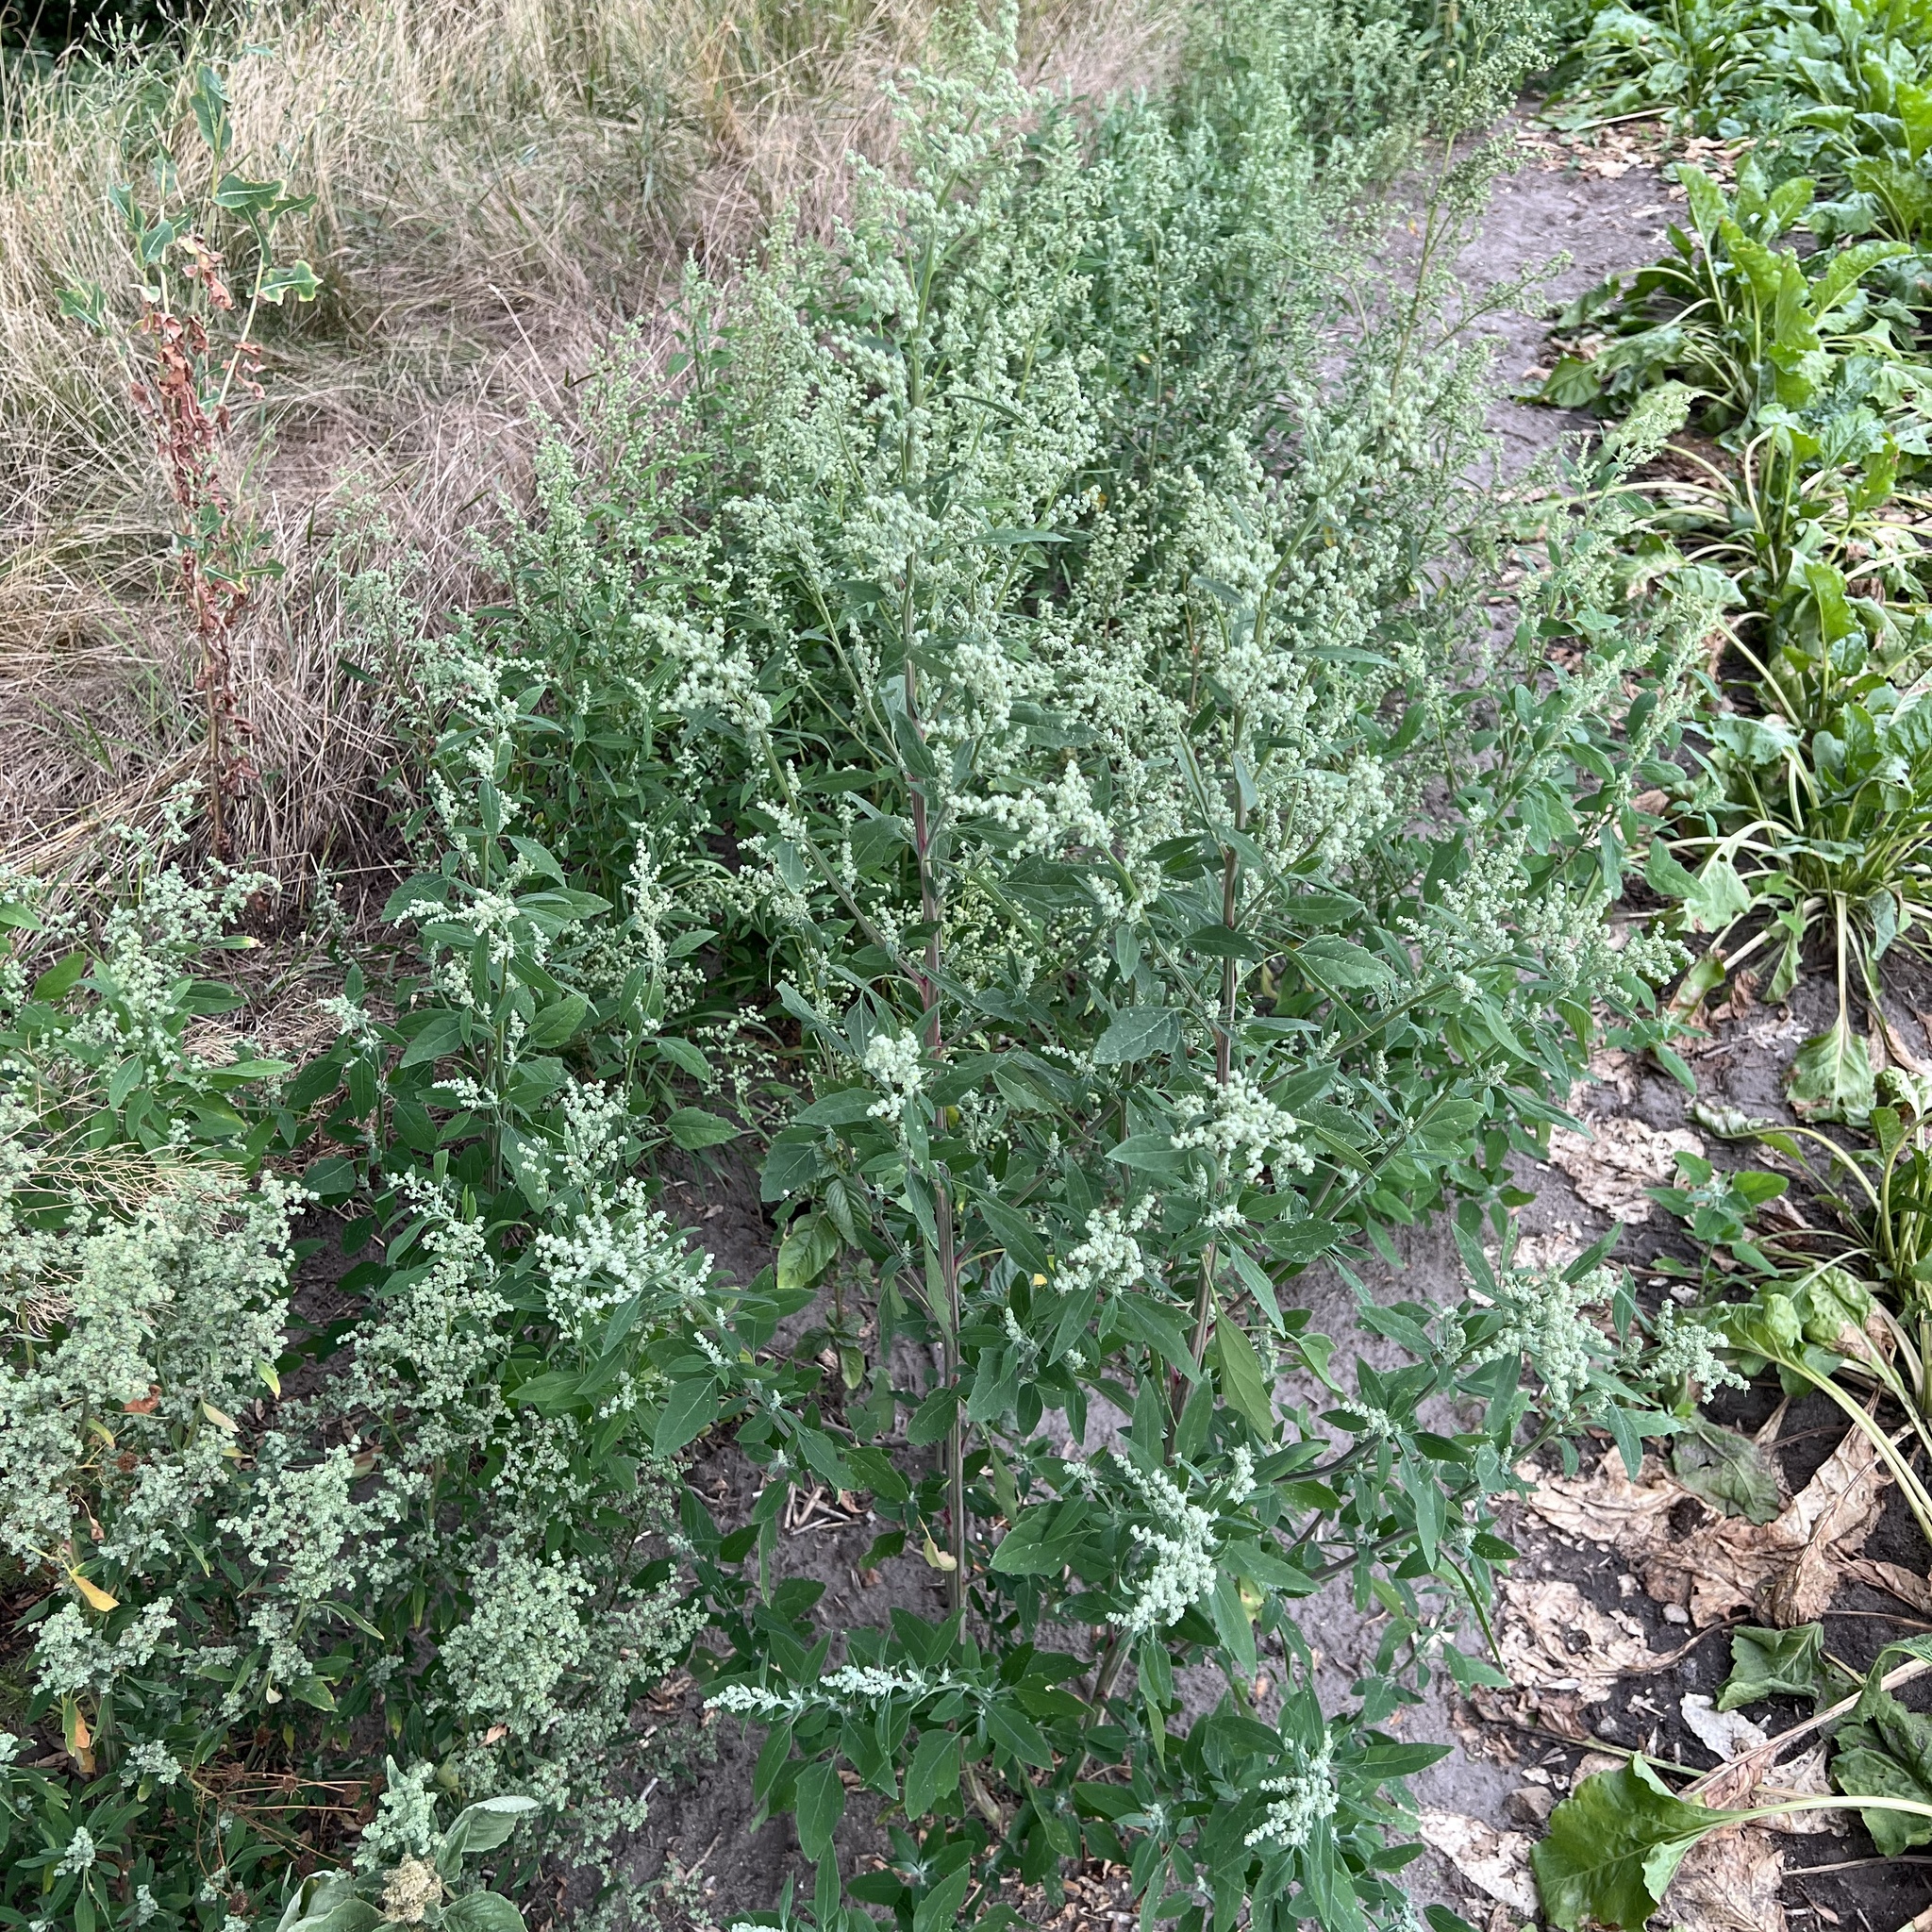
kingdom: Plantae
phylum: Tracheophyta
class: Magnoliopsida
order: Caryophyllales
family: Amaranthaceae
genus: Chenopodium
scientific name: Chenopodium album
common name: Fat-hen
